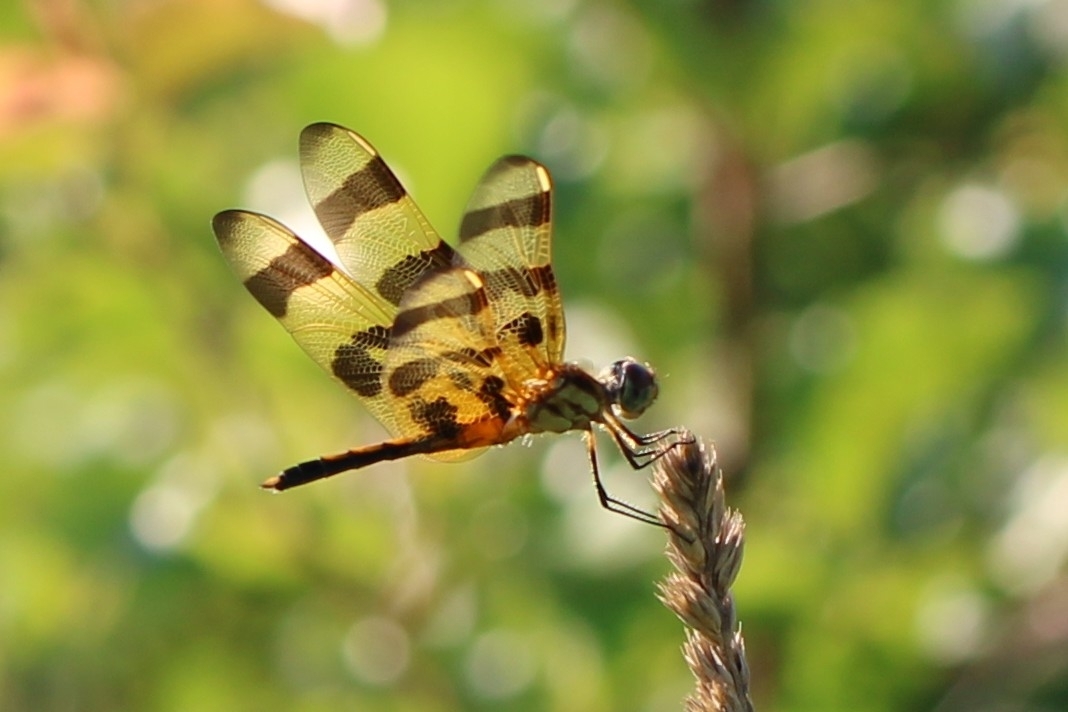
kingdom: Animalia
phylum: Arthropoda
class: Insecta
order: Odonata
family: Libellulidae
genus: Celithemis
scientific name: Celithemis eponina
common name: Halloween pennant
